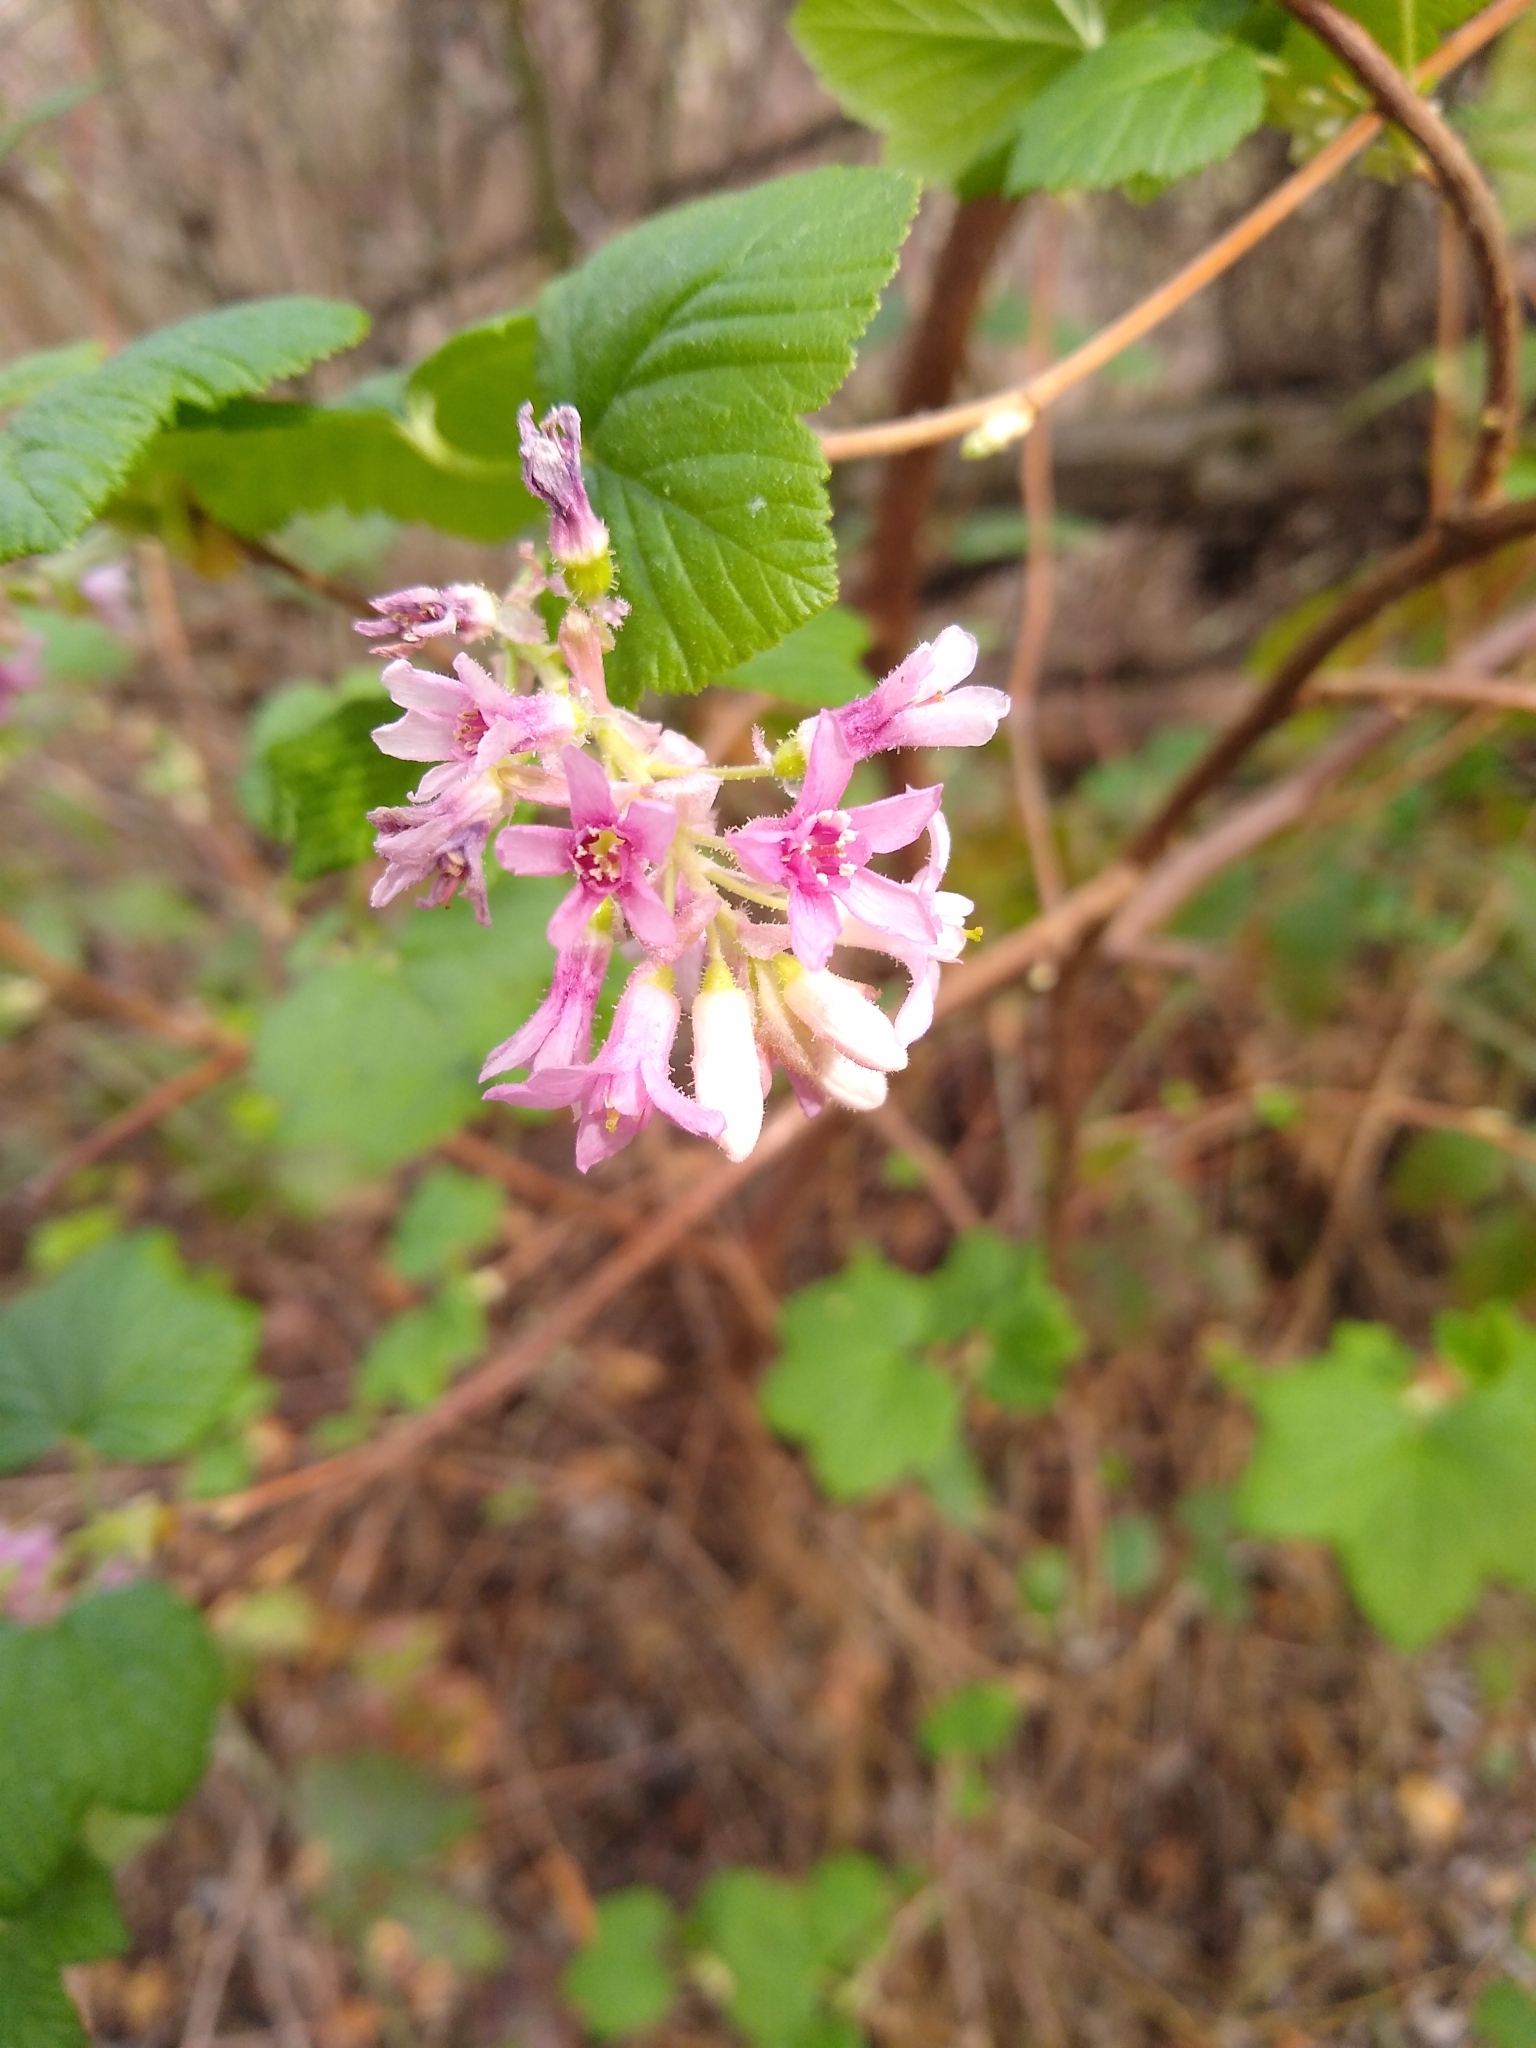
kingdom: Plantae
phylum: Tracheophyta
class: Magnoliopsida
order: Saxifragales
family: Grossulariaceae
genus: Ribes
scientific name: Ribes sanguineum
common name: Flowering currant
